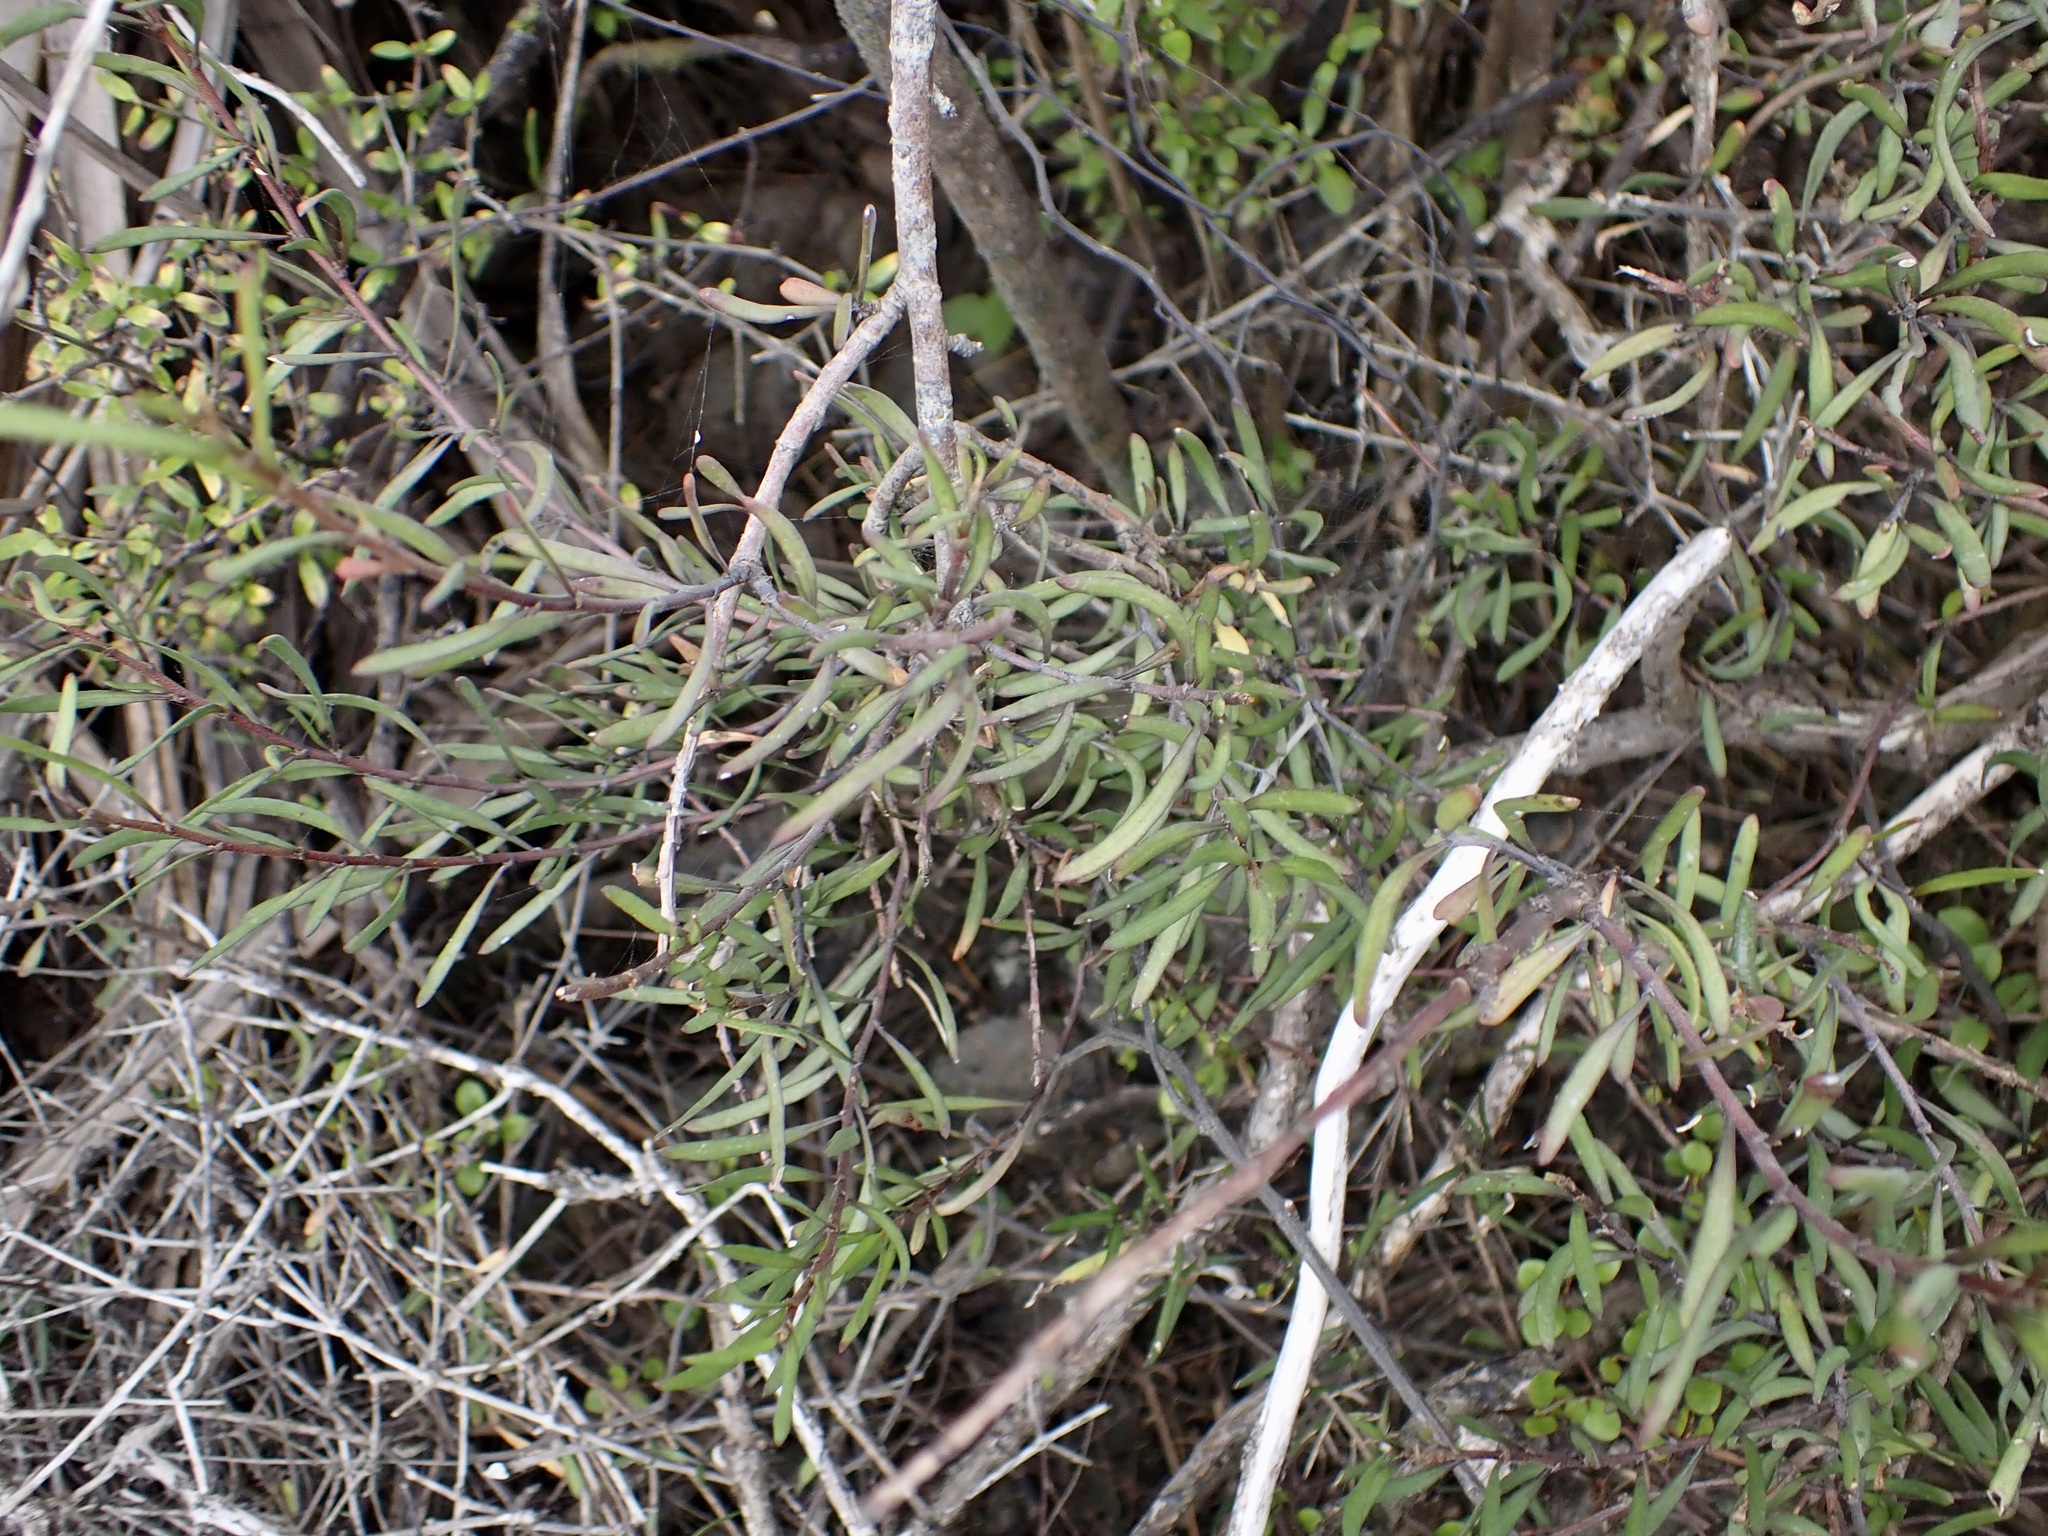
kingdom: Plantae
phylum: Tracheophyta
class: Magnoliopsida
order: Malvales
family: Malvaceae
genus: Plagianthus
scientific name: Plagianthus divaricatus
